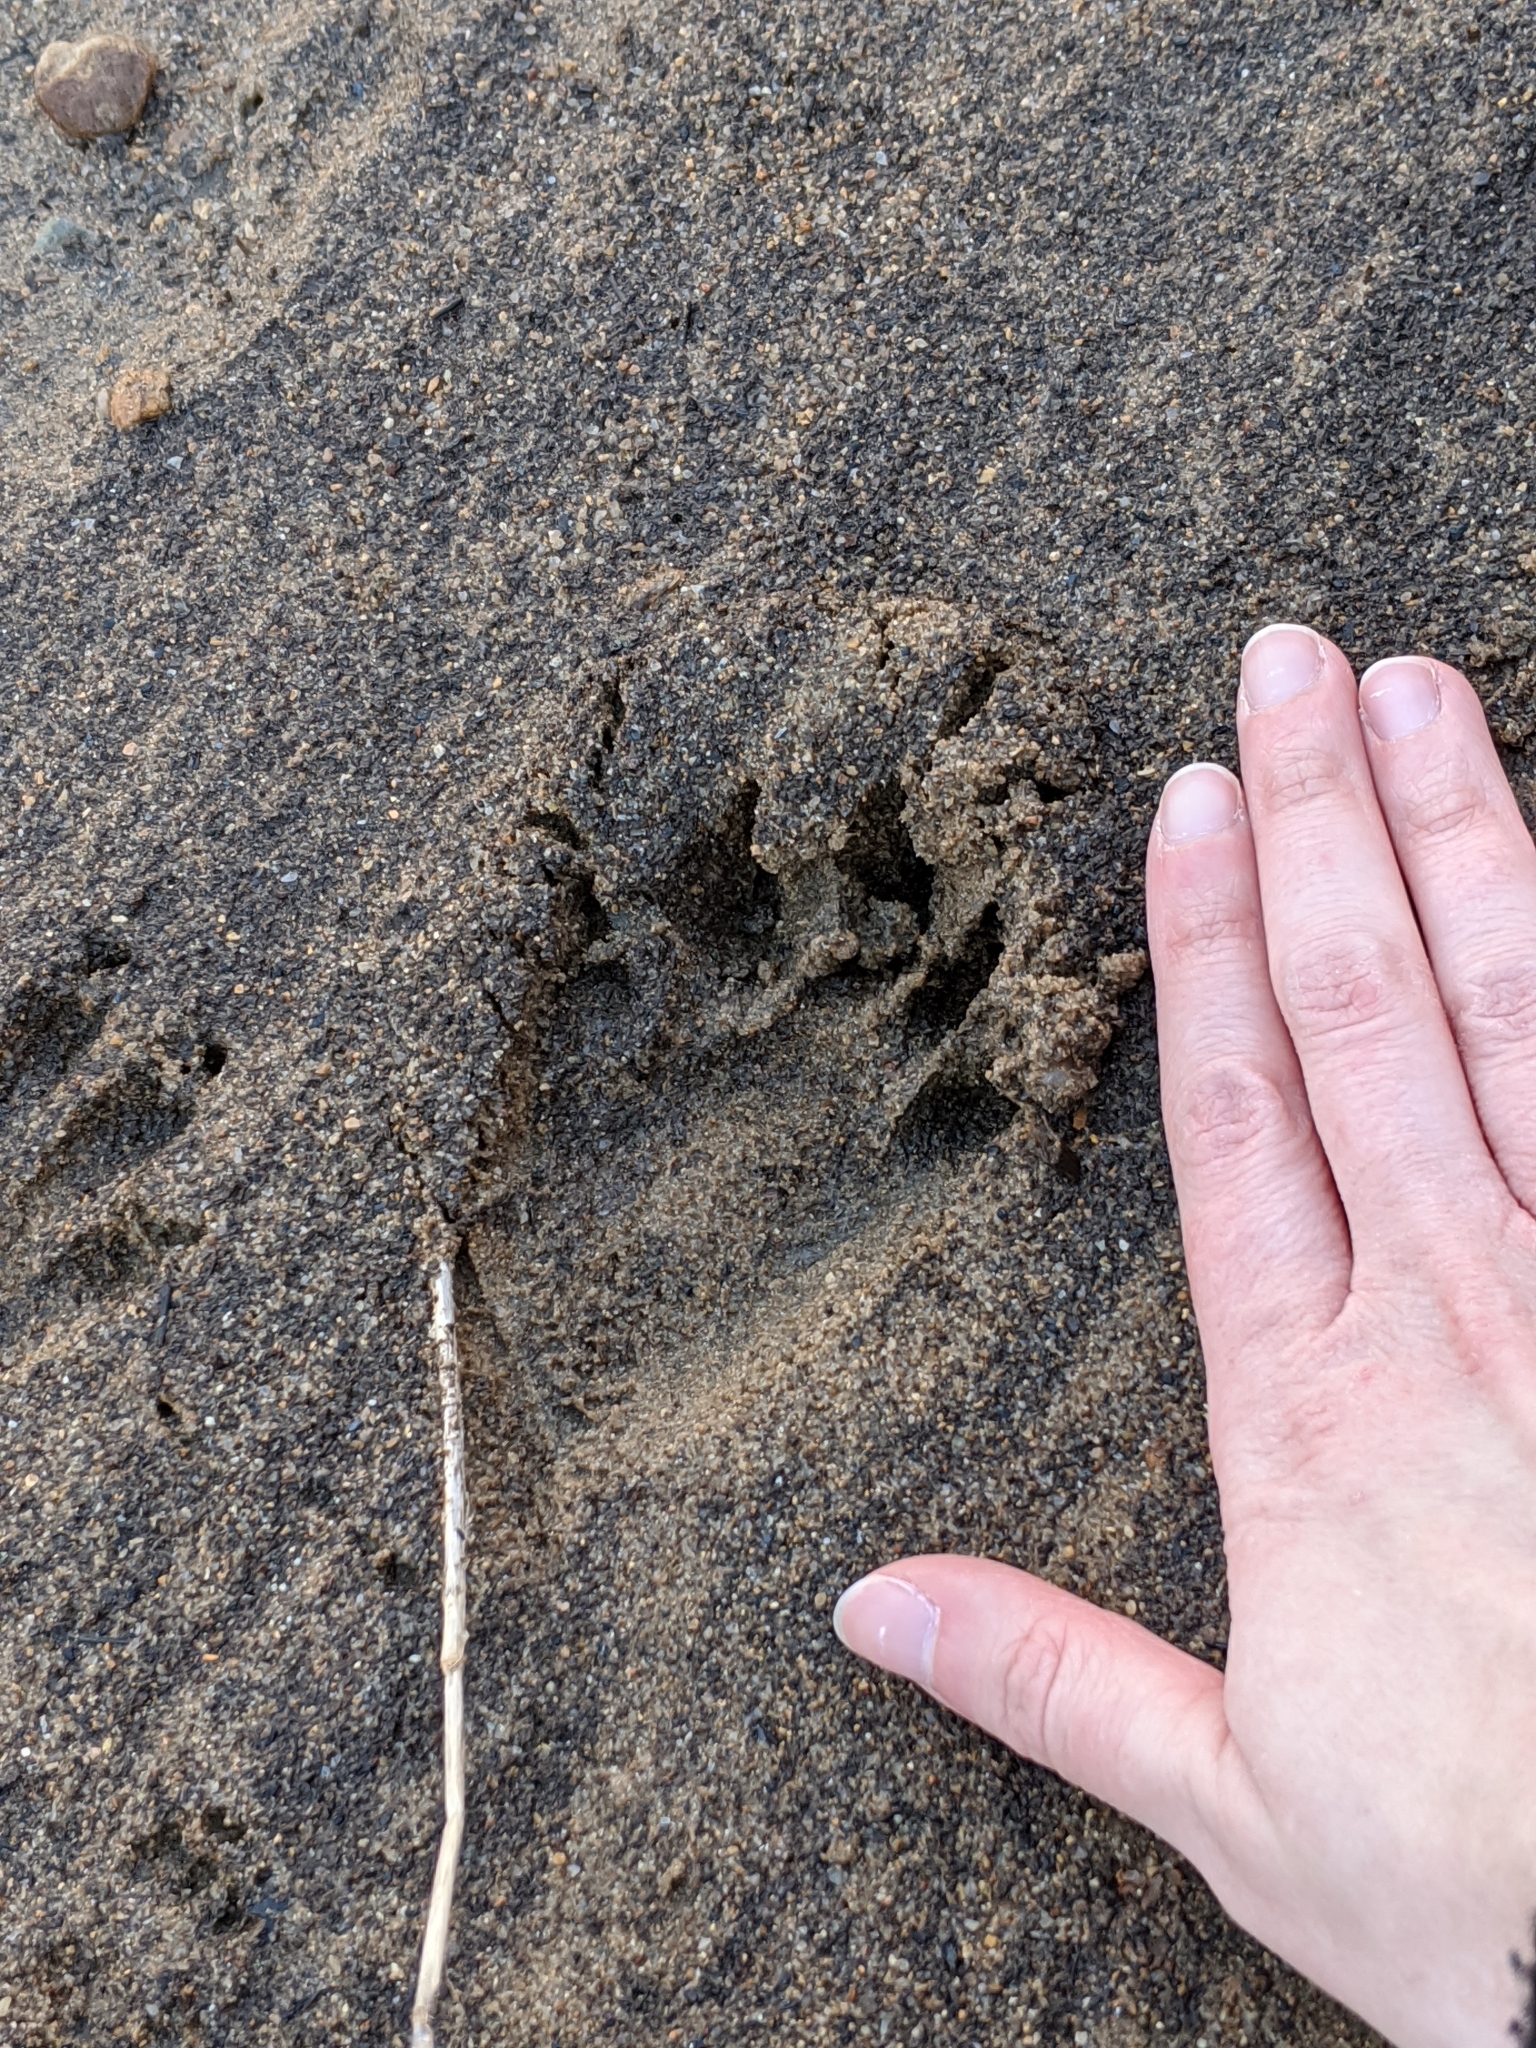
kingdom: Animalia
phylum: Chordata
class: Mammalia
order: Carnivora
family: Procyonidae
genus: Procyon
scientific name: Procyon lotor
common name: Raccoon
